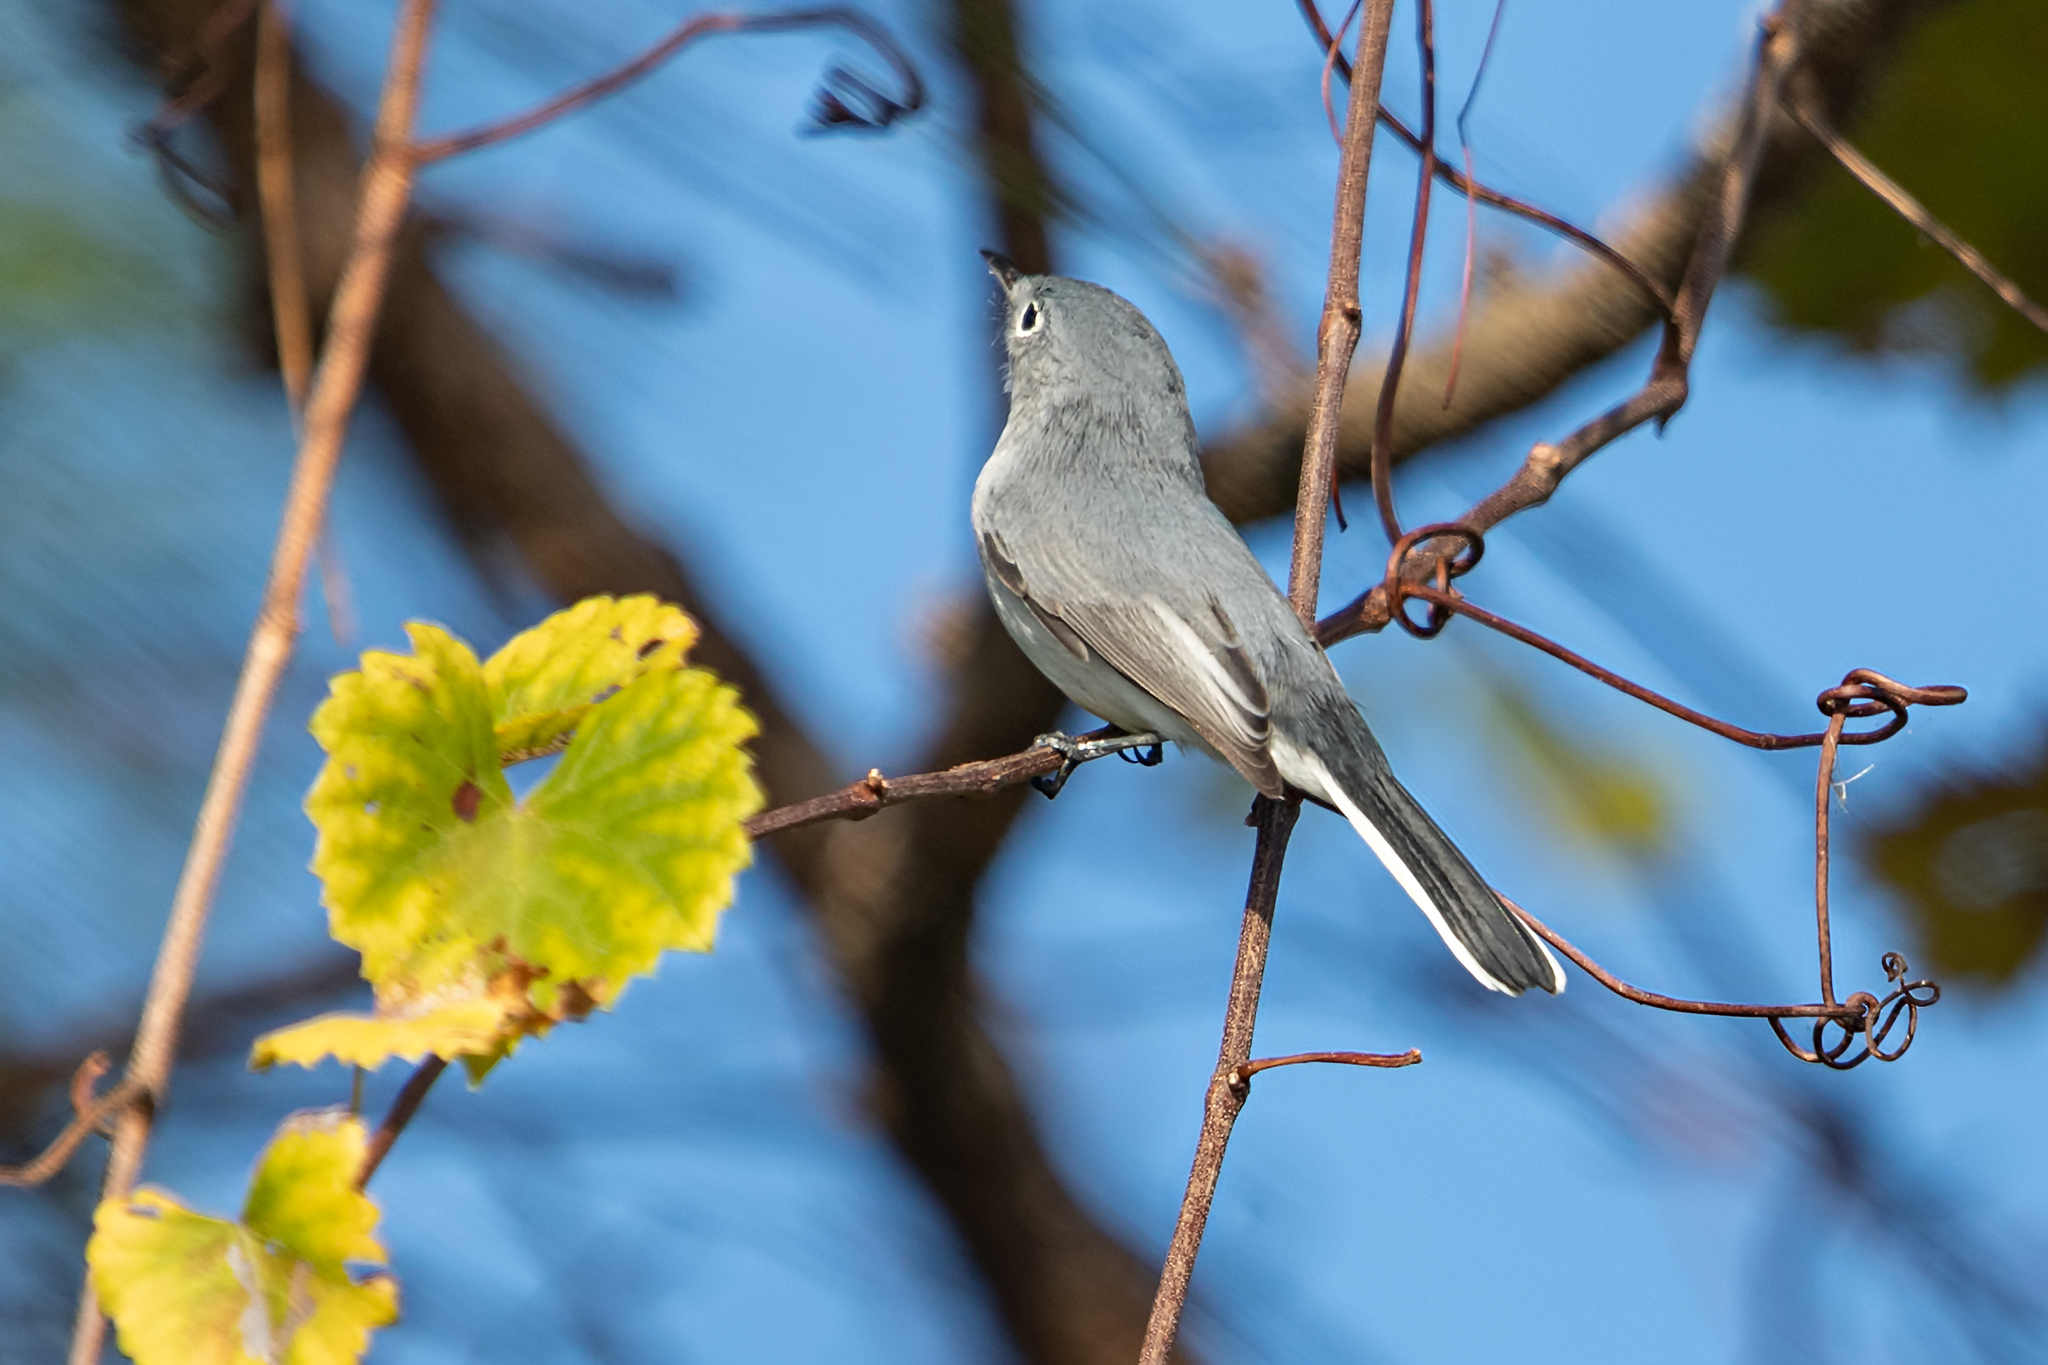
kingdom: Animalia
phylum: Chordata
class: Aves
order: Passeriformes
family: Polioptilidae
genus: Polioptila
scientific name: Polioptila caerulea
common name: Blue-gray gnatcatcher
